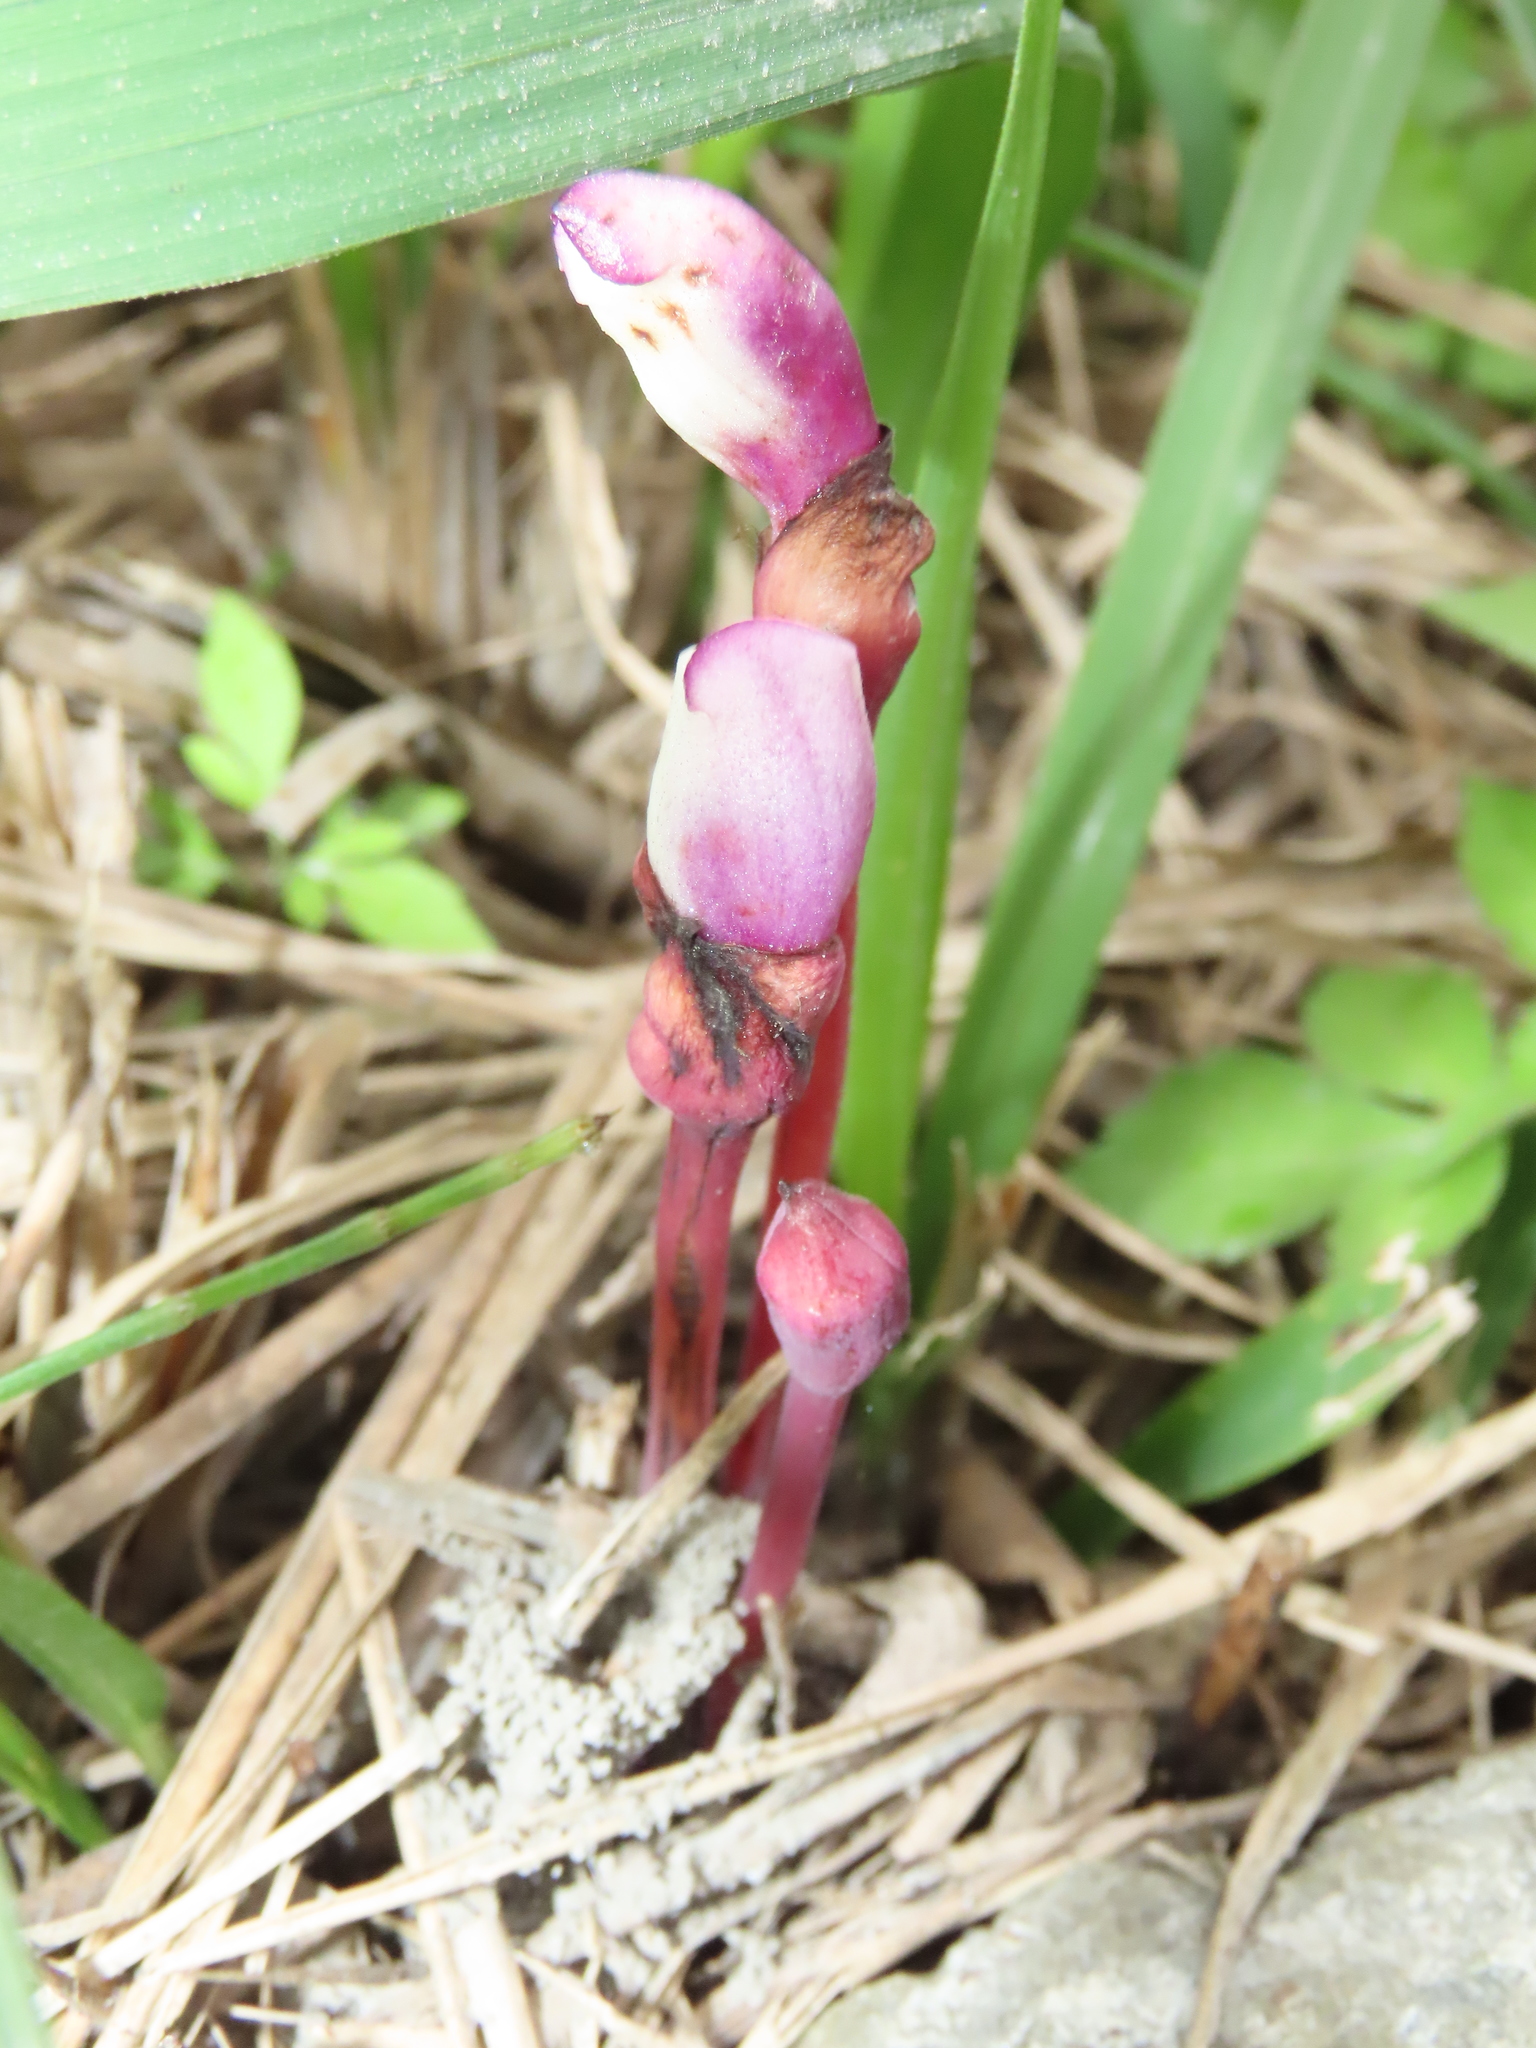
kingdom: Plantae
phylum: Tracheophyta
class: Magnoliopsida
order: Lamiales
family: Orobanchaceae
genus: Aeginetia
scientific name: Aeginetia indica
